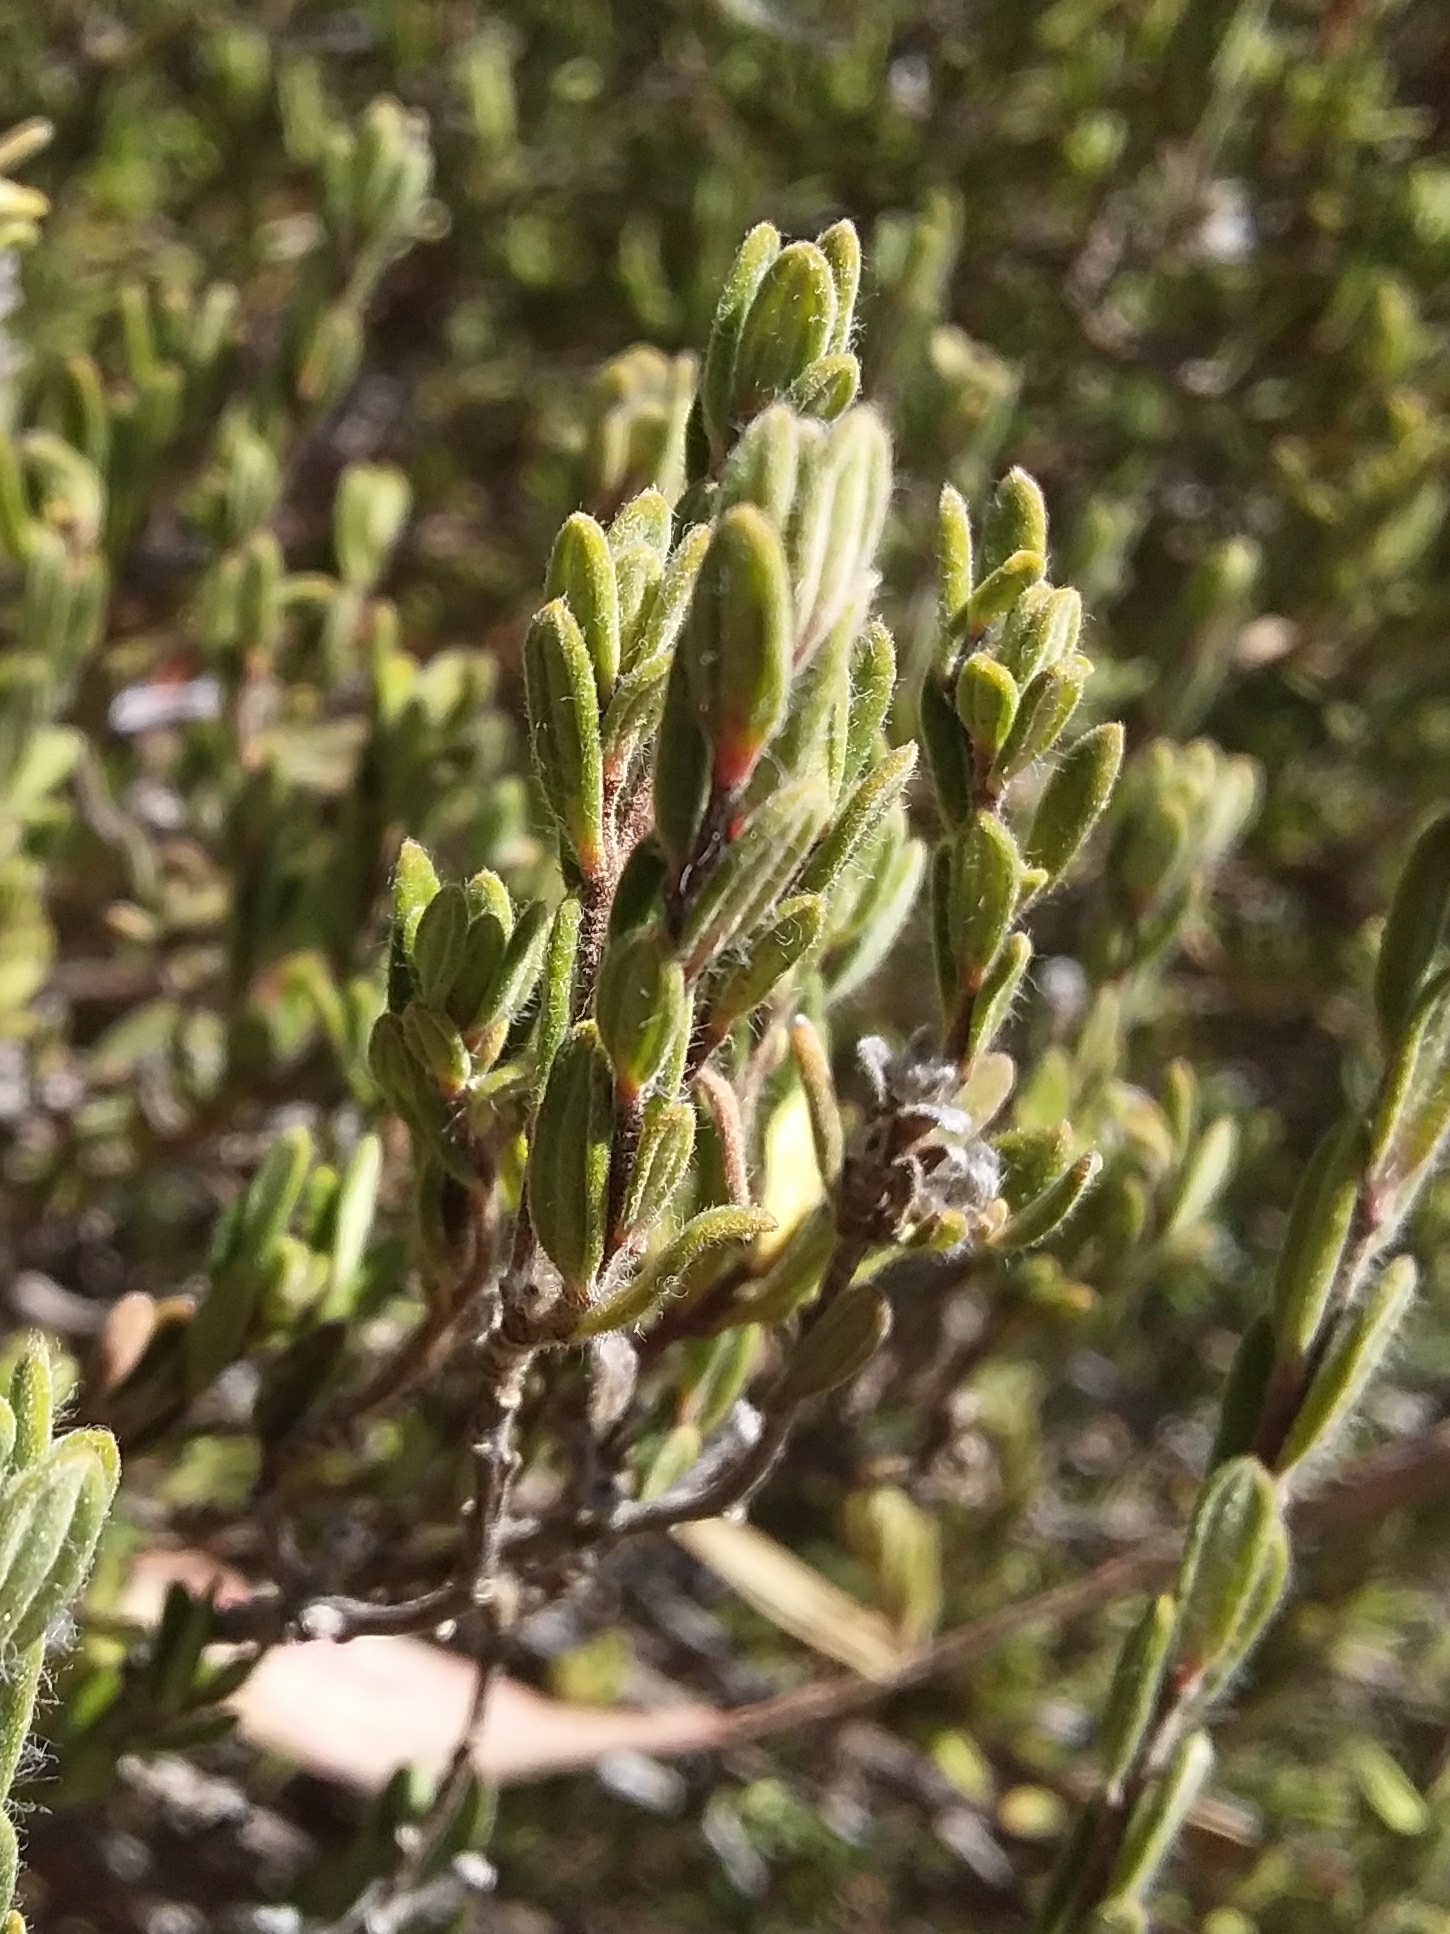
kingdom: Plantae
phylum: Tracheophyta
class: Magnoliopsida
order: Dilleniales
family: Dilleniaceae
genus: Hibbertia
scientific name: Hibbertia crinita
